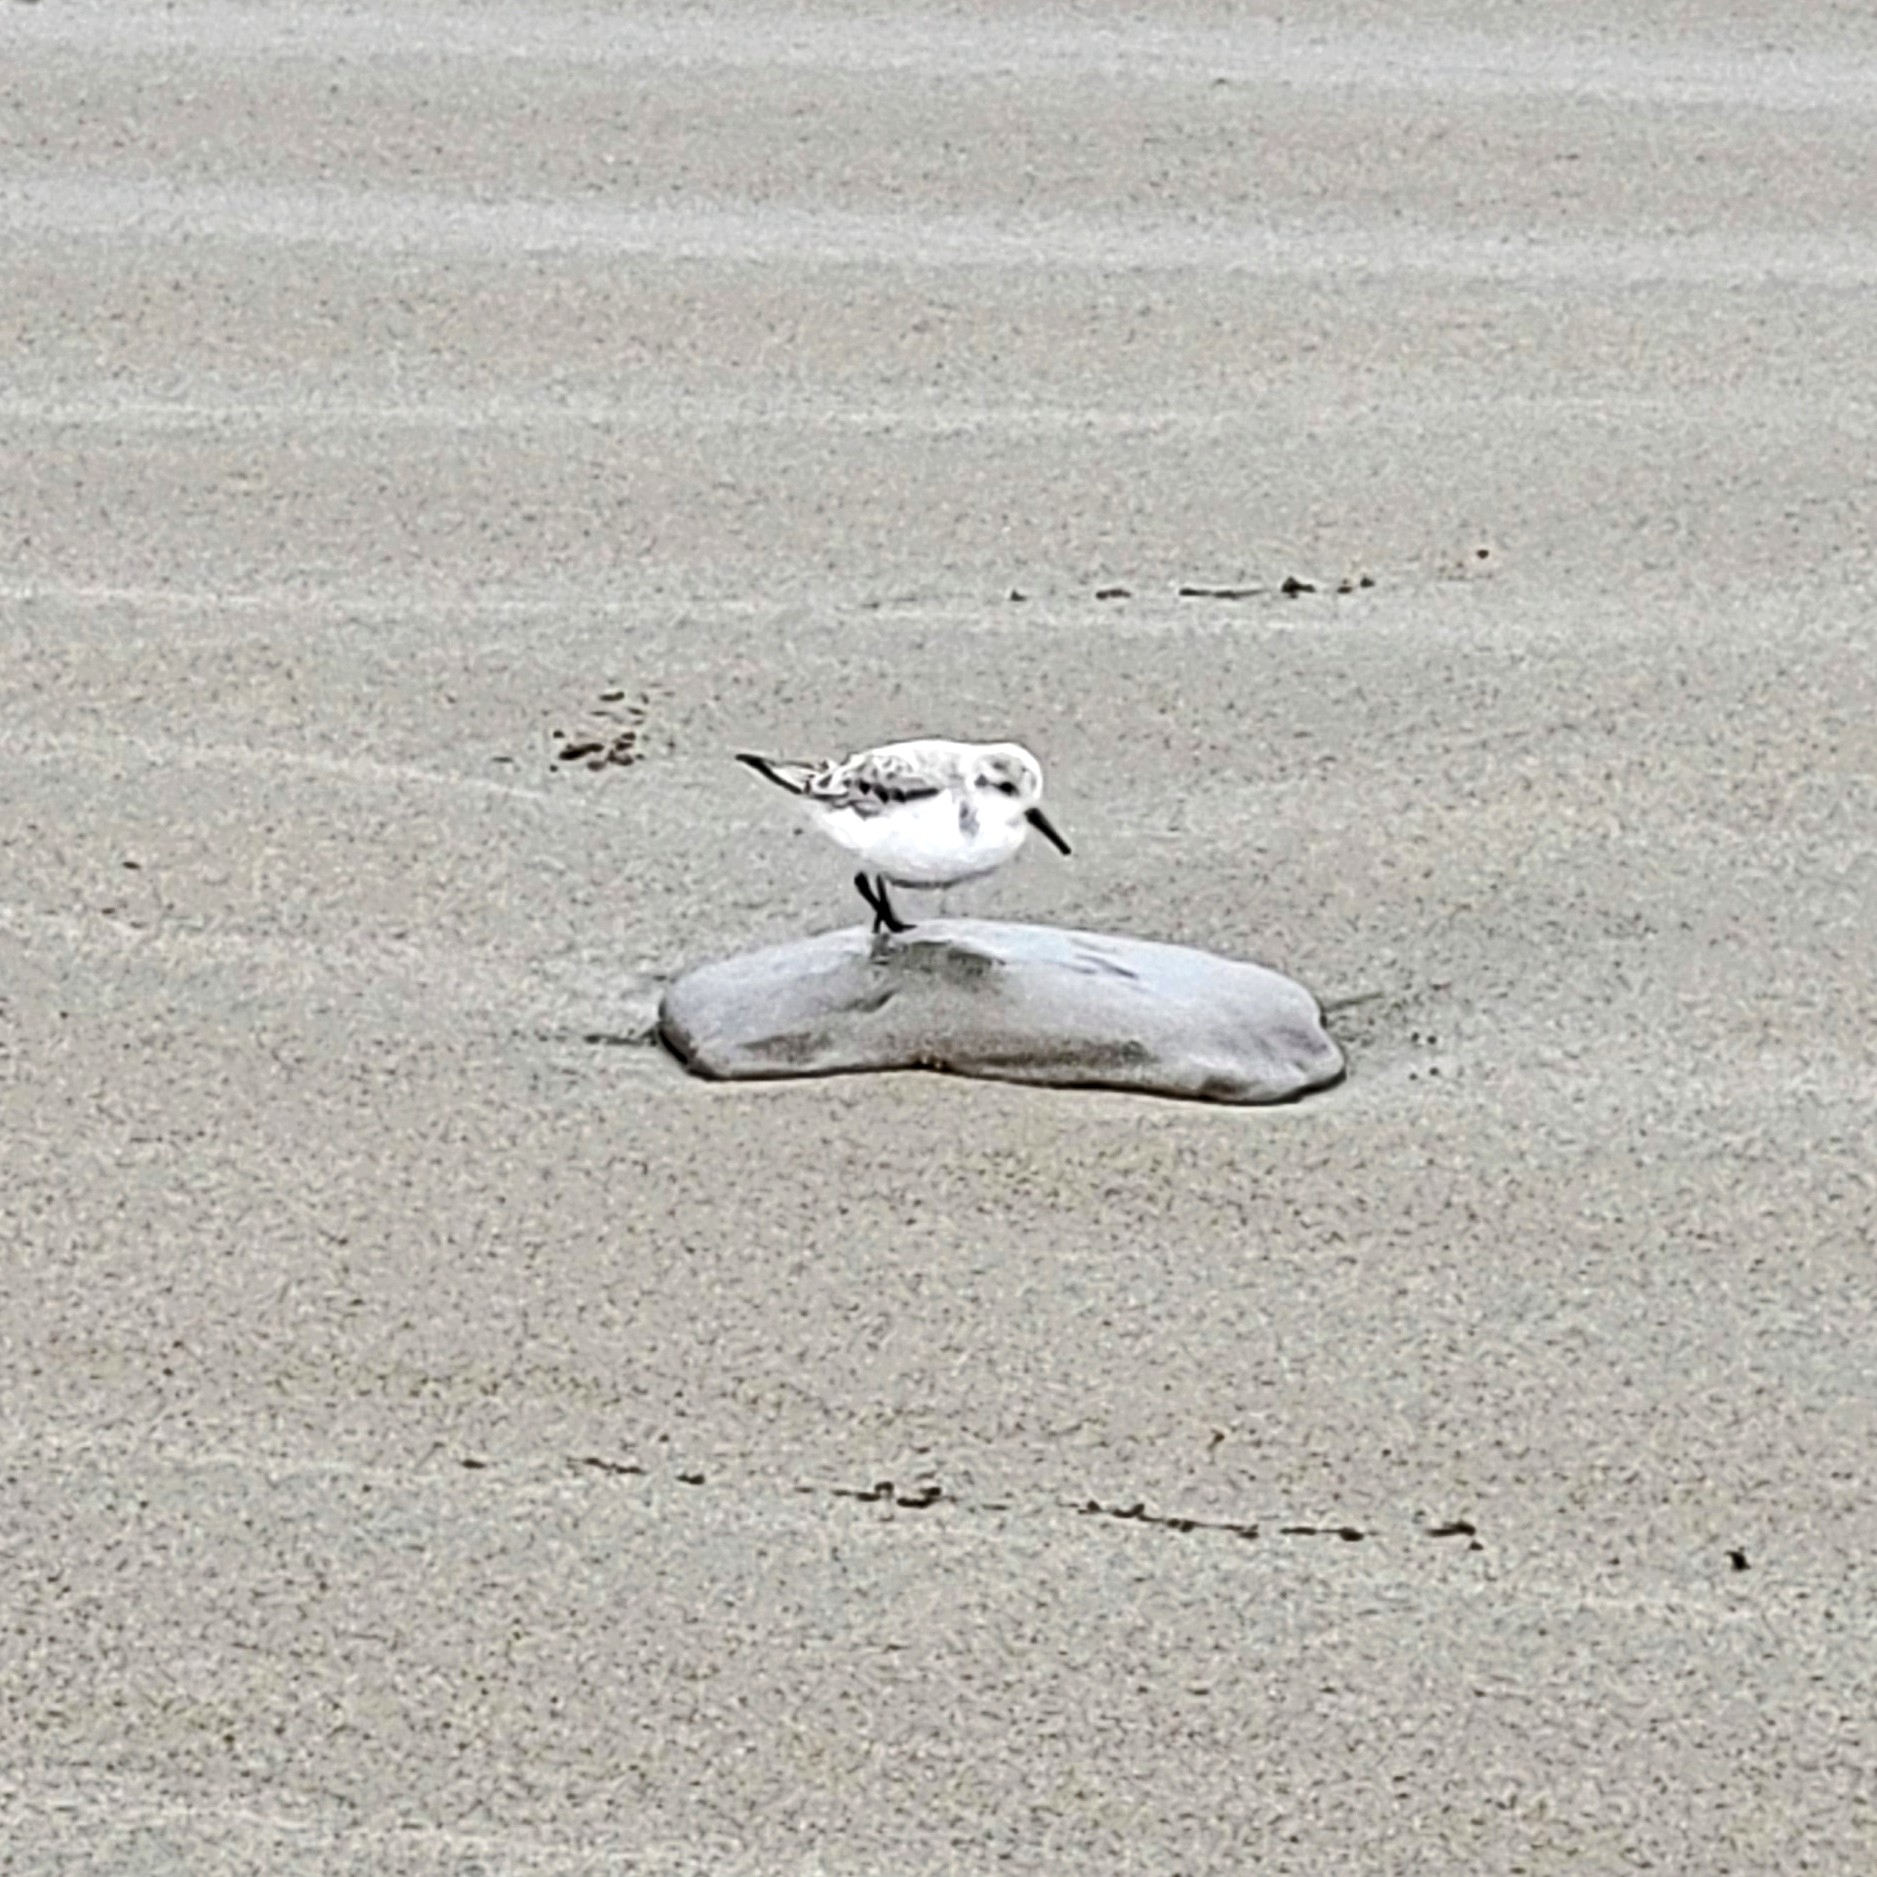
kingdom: Animalia
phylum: Chordata
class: Aves
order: Charadriiformes
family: Scolopacidae
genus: Calidris
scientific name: Calidris alba
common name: Sanderling
